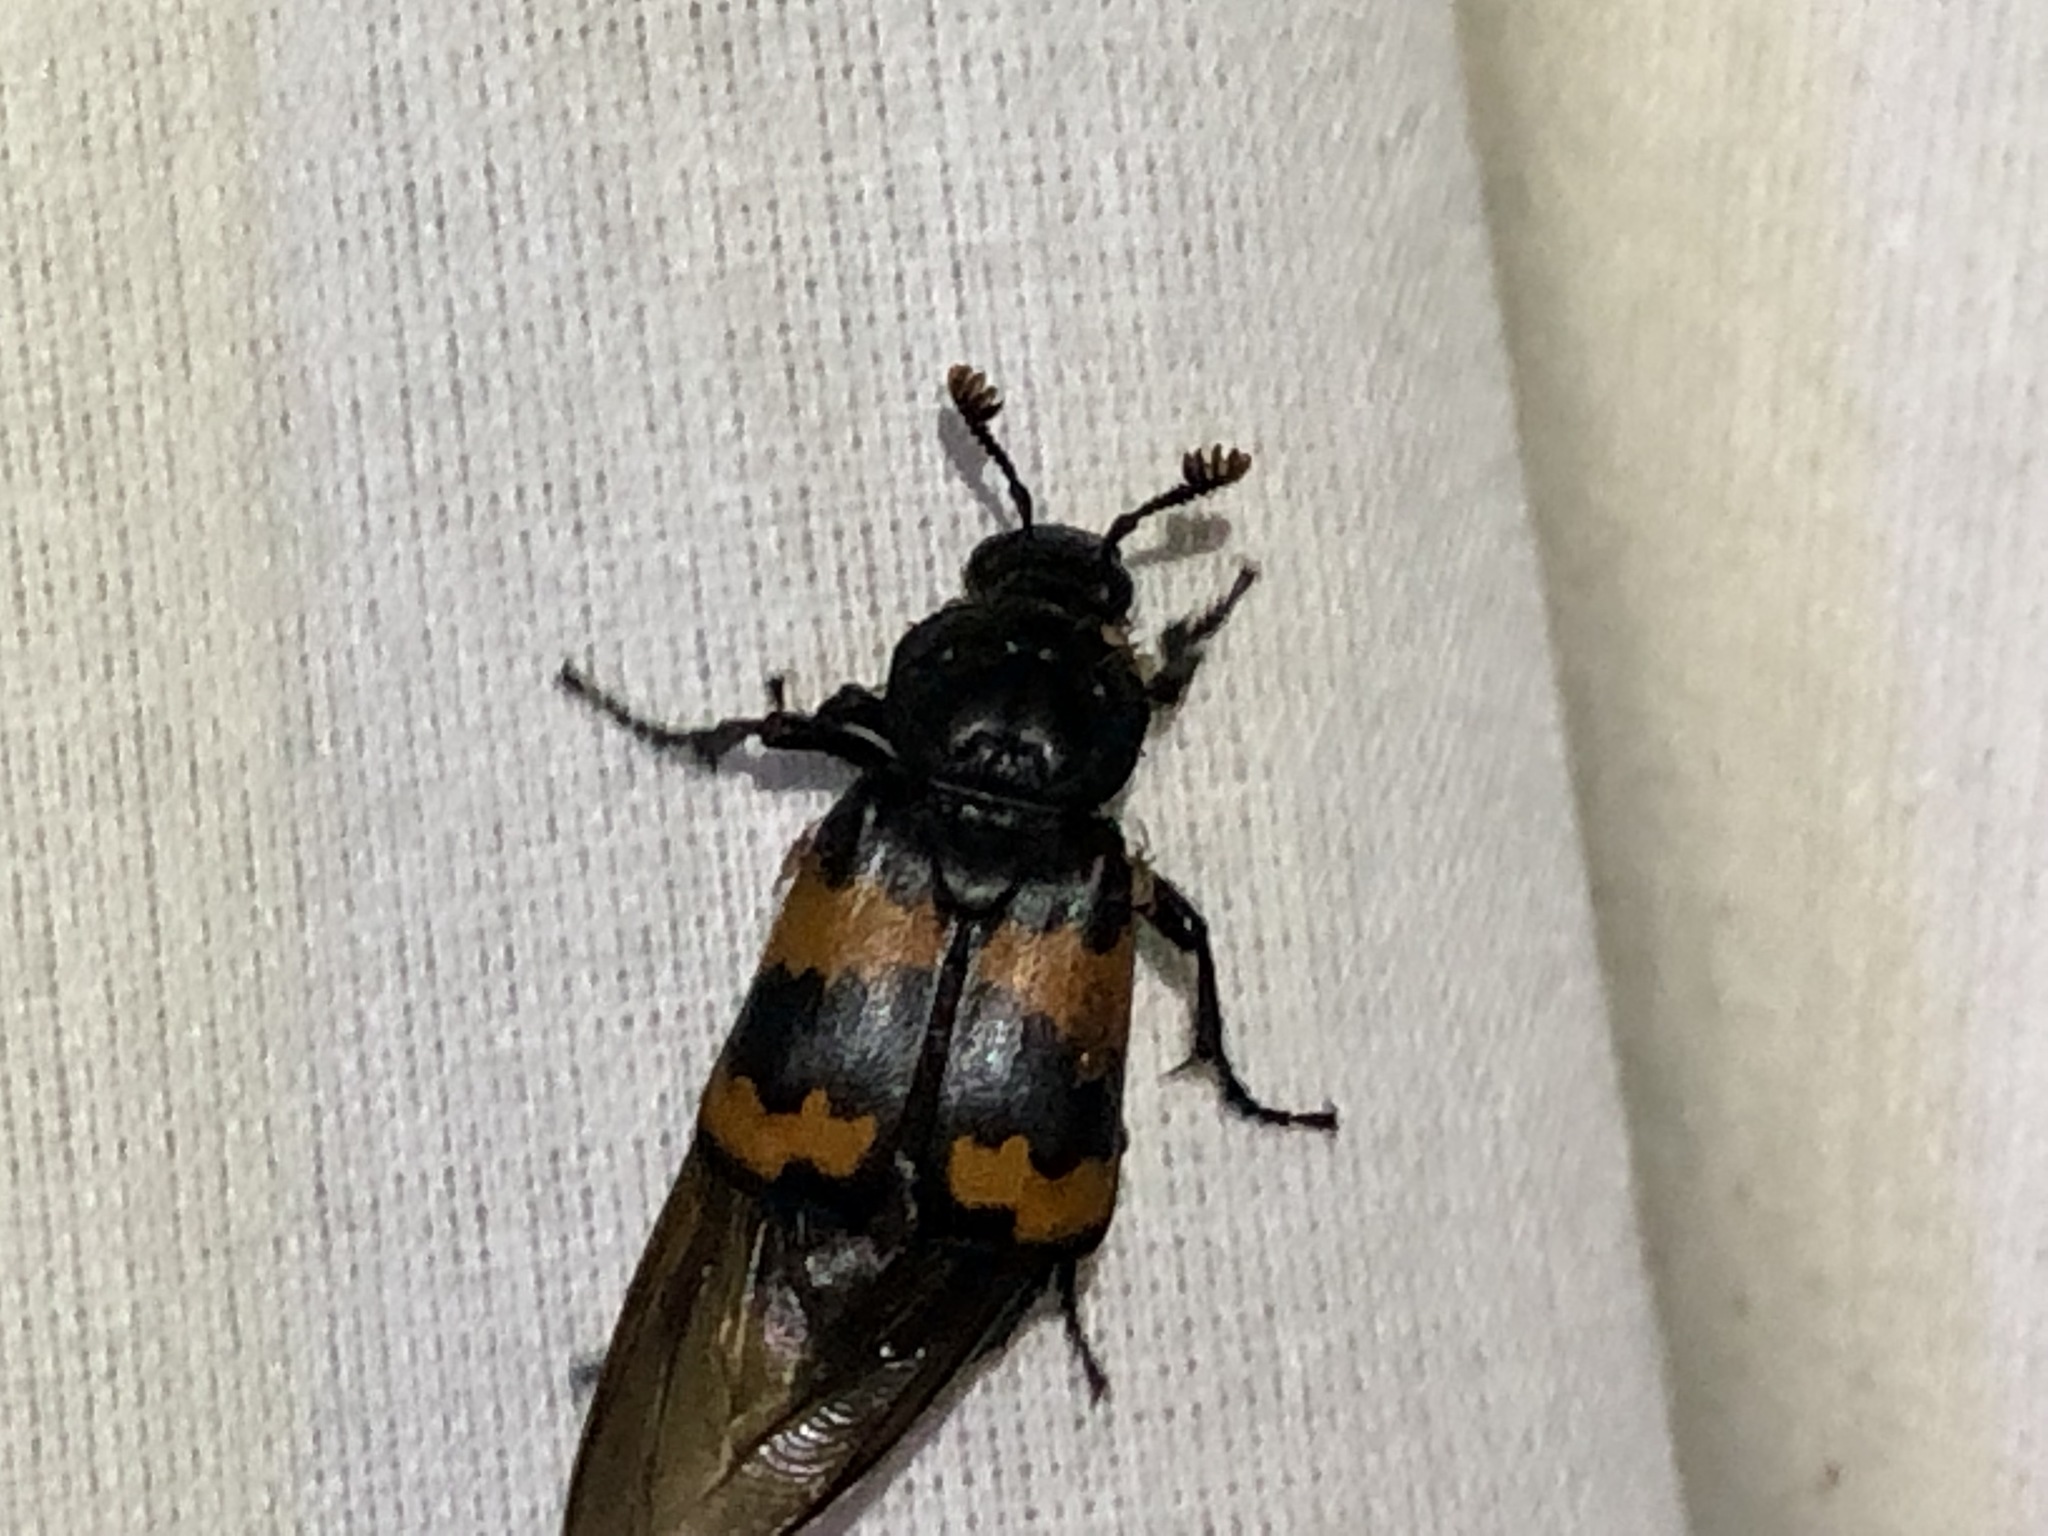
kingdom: Animalia
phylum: Arthropoda
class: Insecta
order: Coleoptera
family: Staphylinidae
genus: Nicrophorus
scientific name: Nicrophorus investigator
